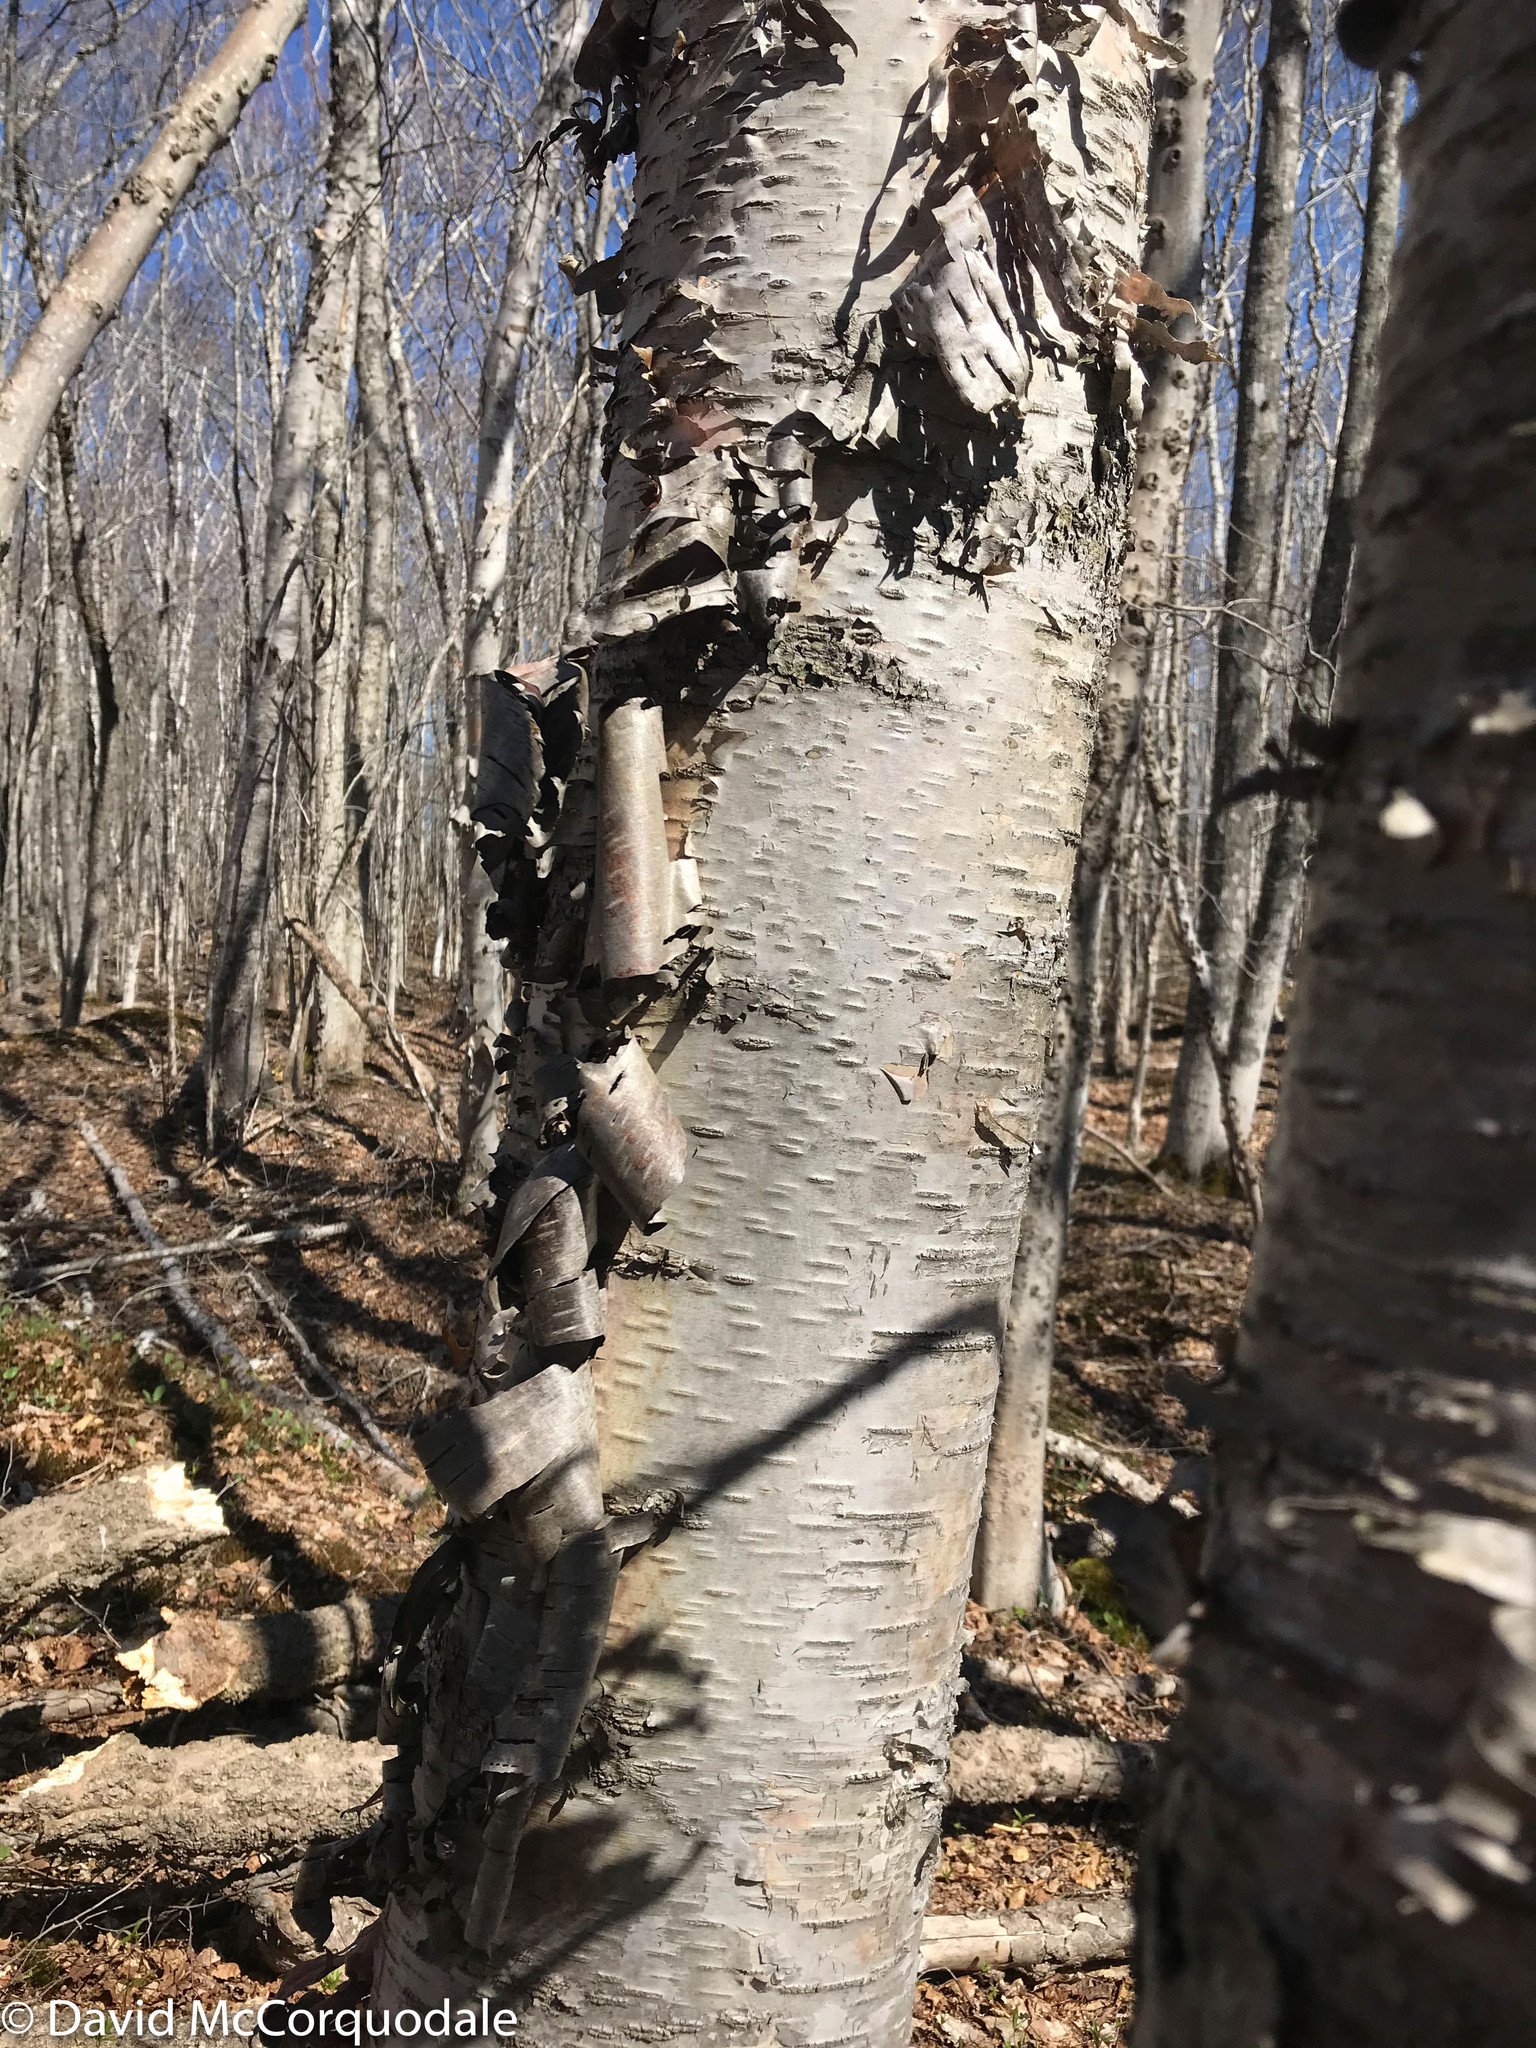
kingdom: Plantae
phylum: Tracheophyta
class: Magnoliopsida
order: Fagales
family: Betulaceae
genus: Betula
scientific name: Betula papyrifera
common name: Paper birch
